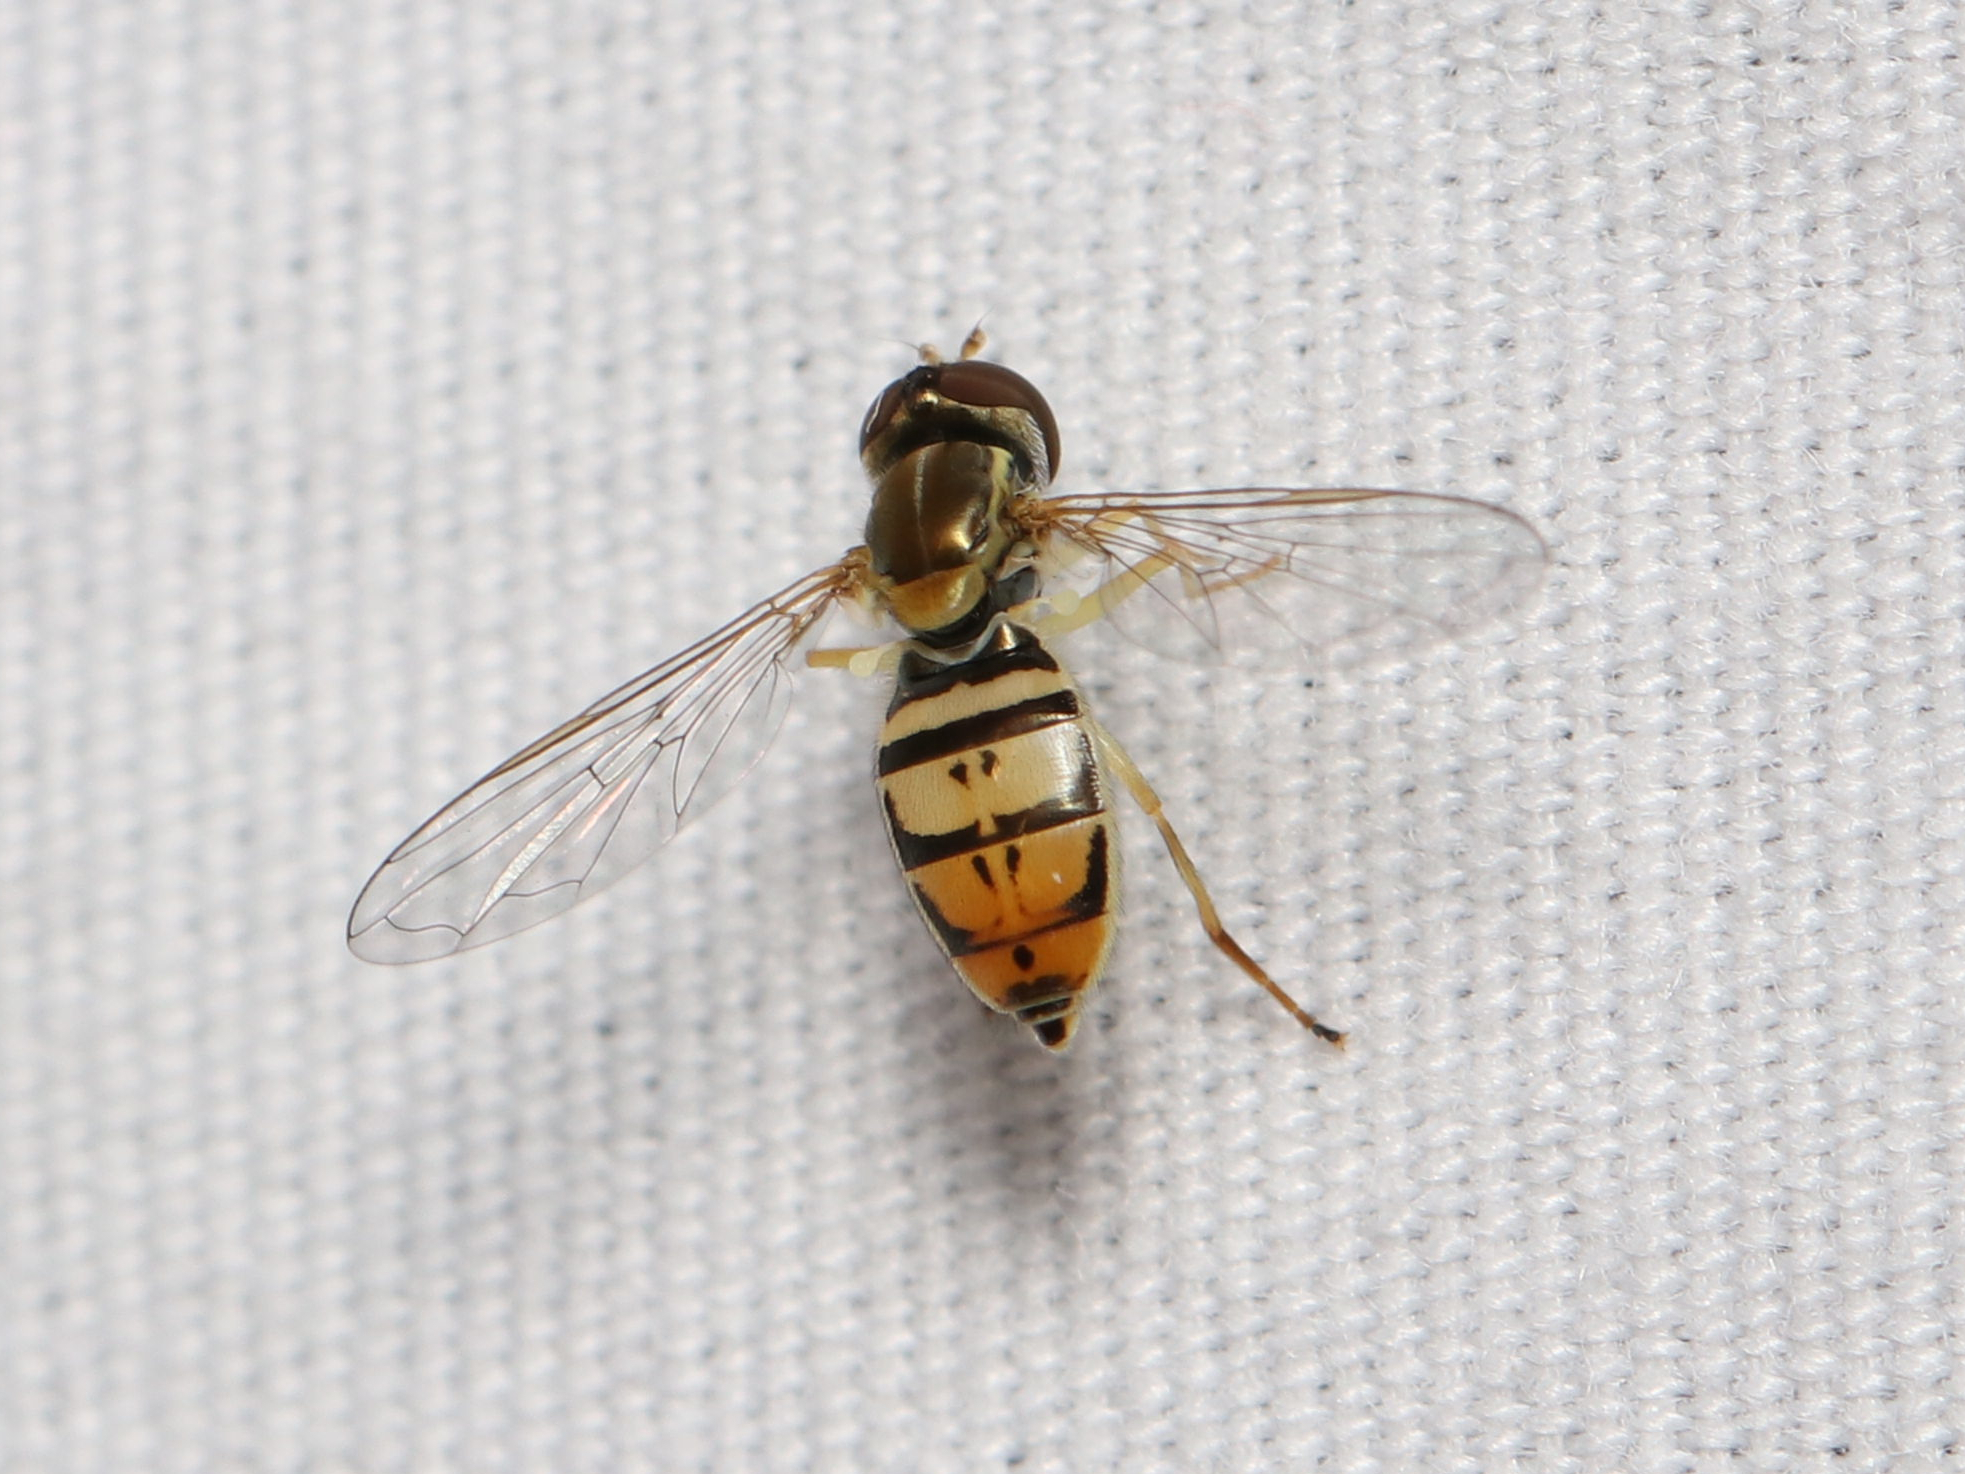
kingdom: Animalia
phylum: Arthropoda
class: Insecta
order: Diptera
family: Syrphidae
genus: Toxomerus
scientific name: Toxomerus marginatus
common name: Syrphid fly
